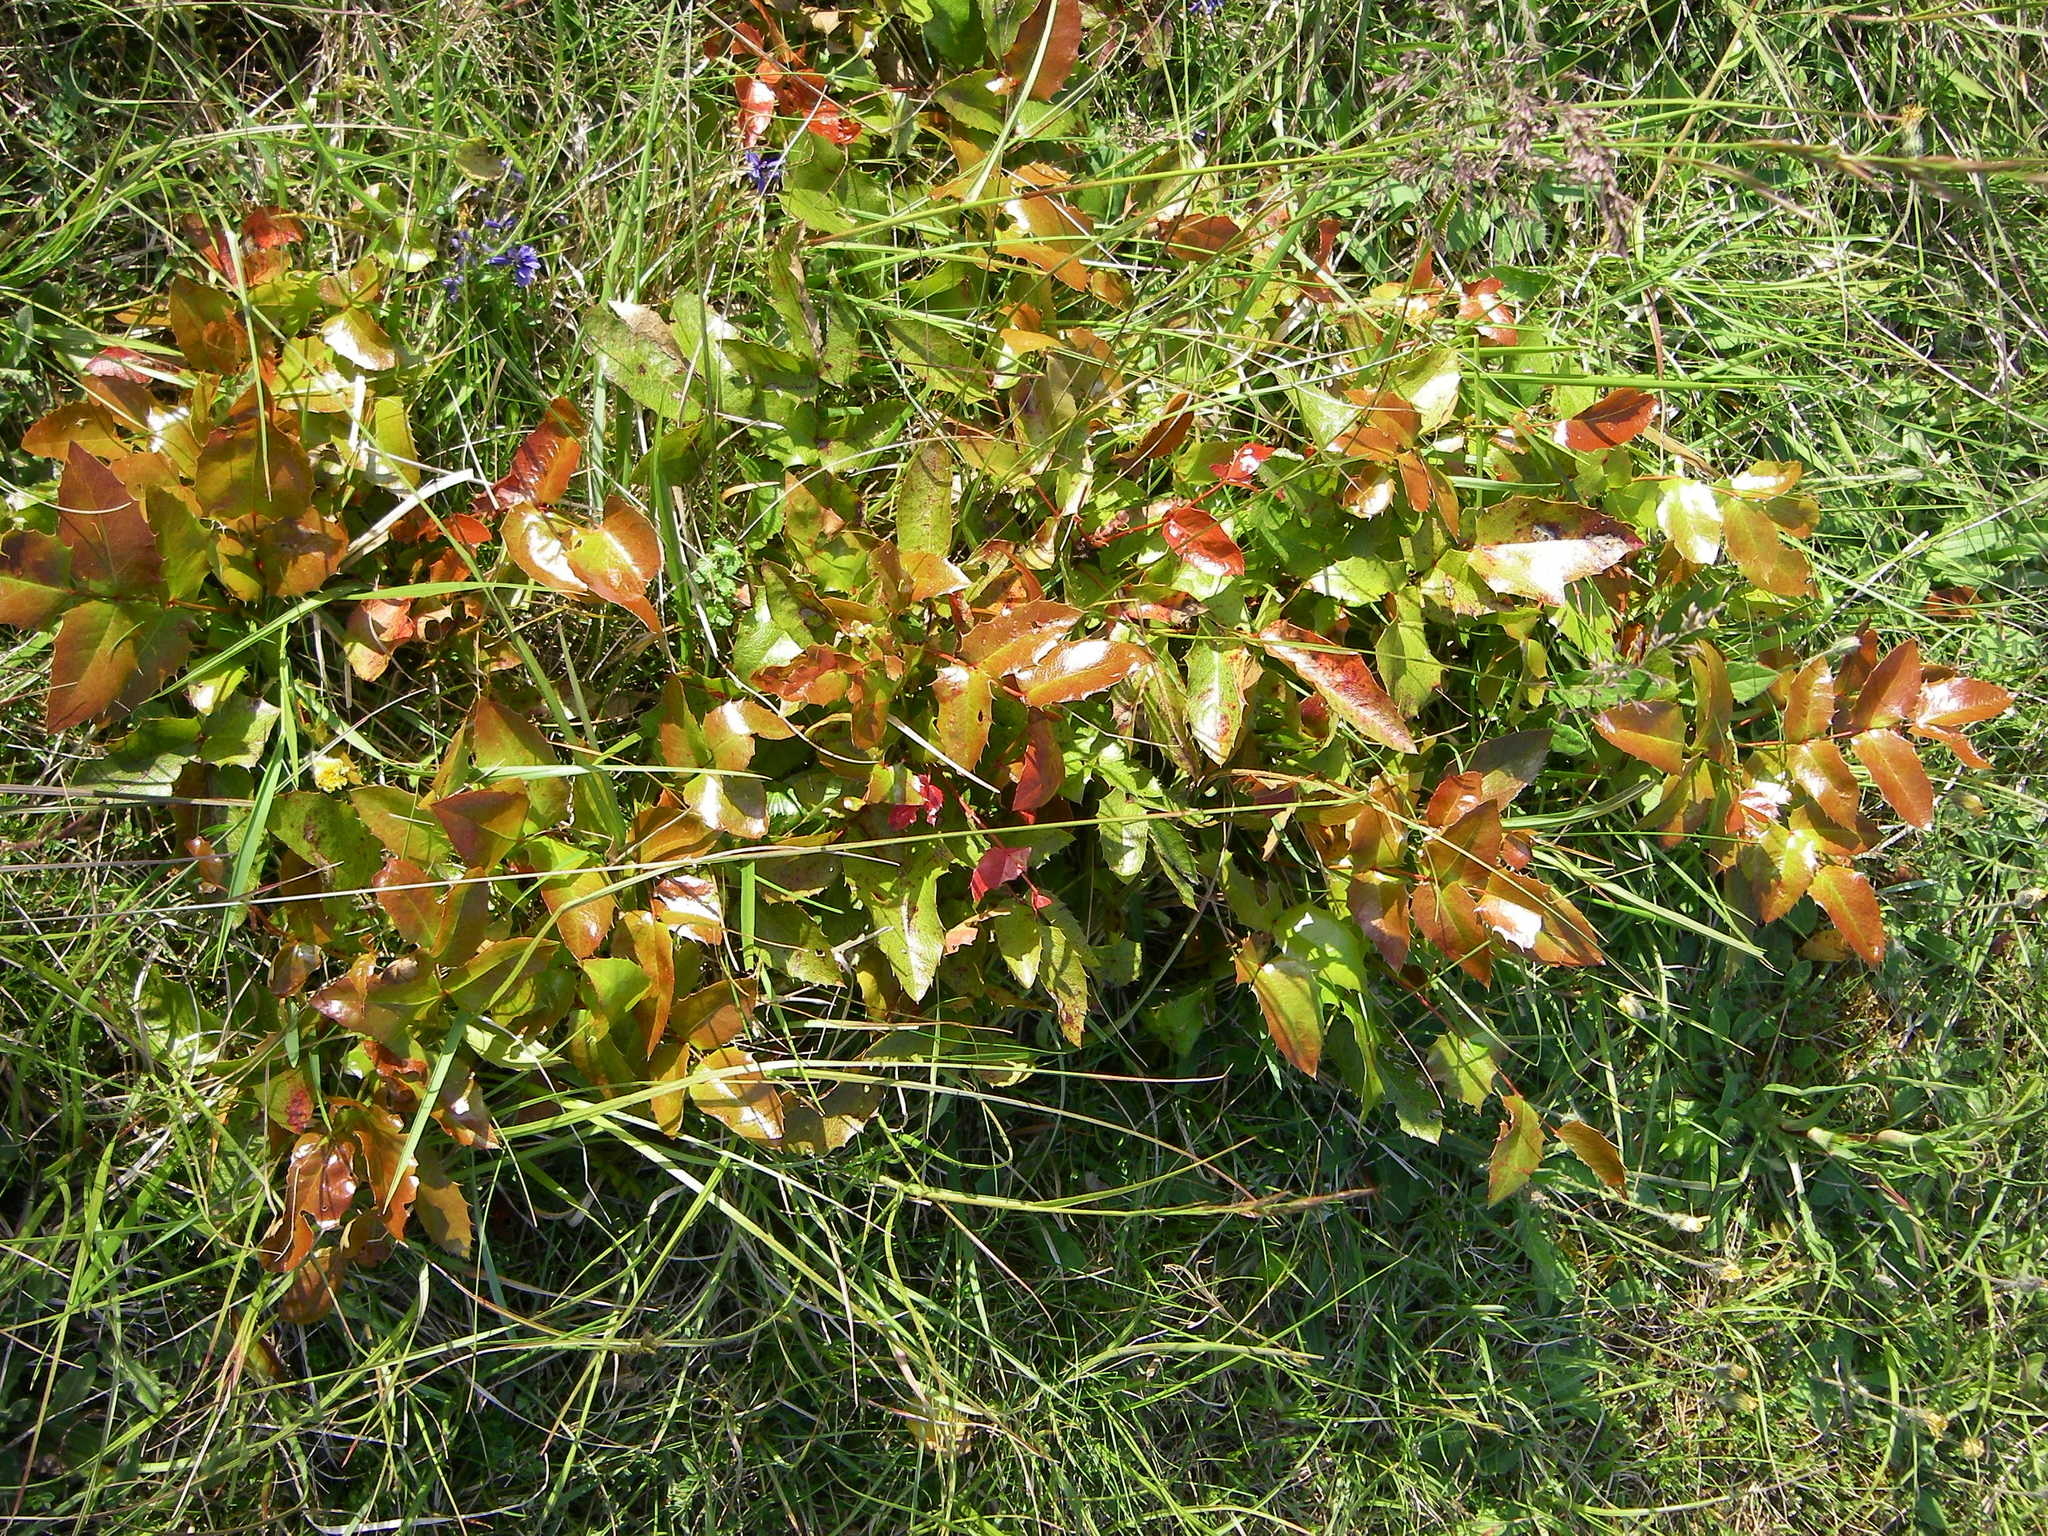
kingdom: Plantae
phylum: Tracheophyta
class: Magnoliopsida
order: Ranunculales
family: Berberidaceae
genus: Mahonia
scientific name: Mahonia aquifolium
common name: Oregon-grape
